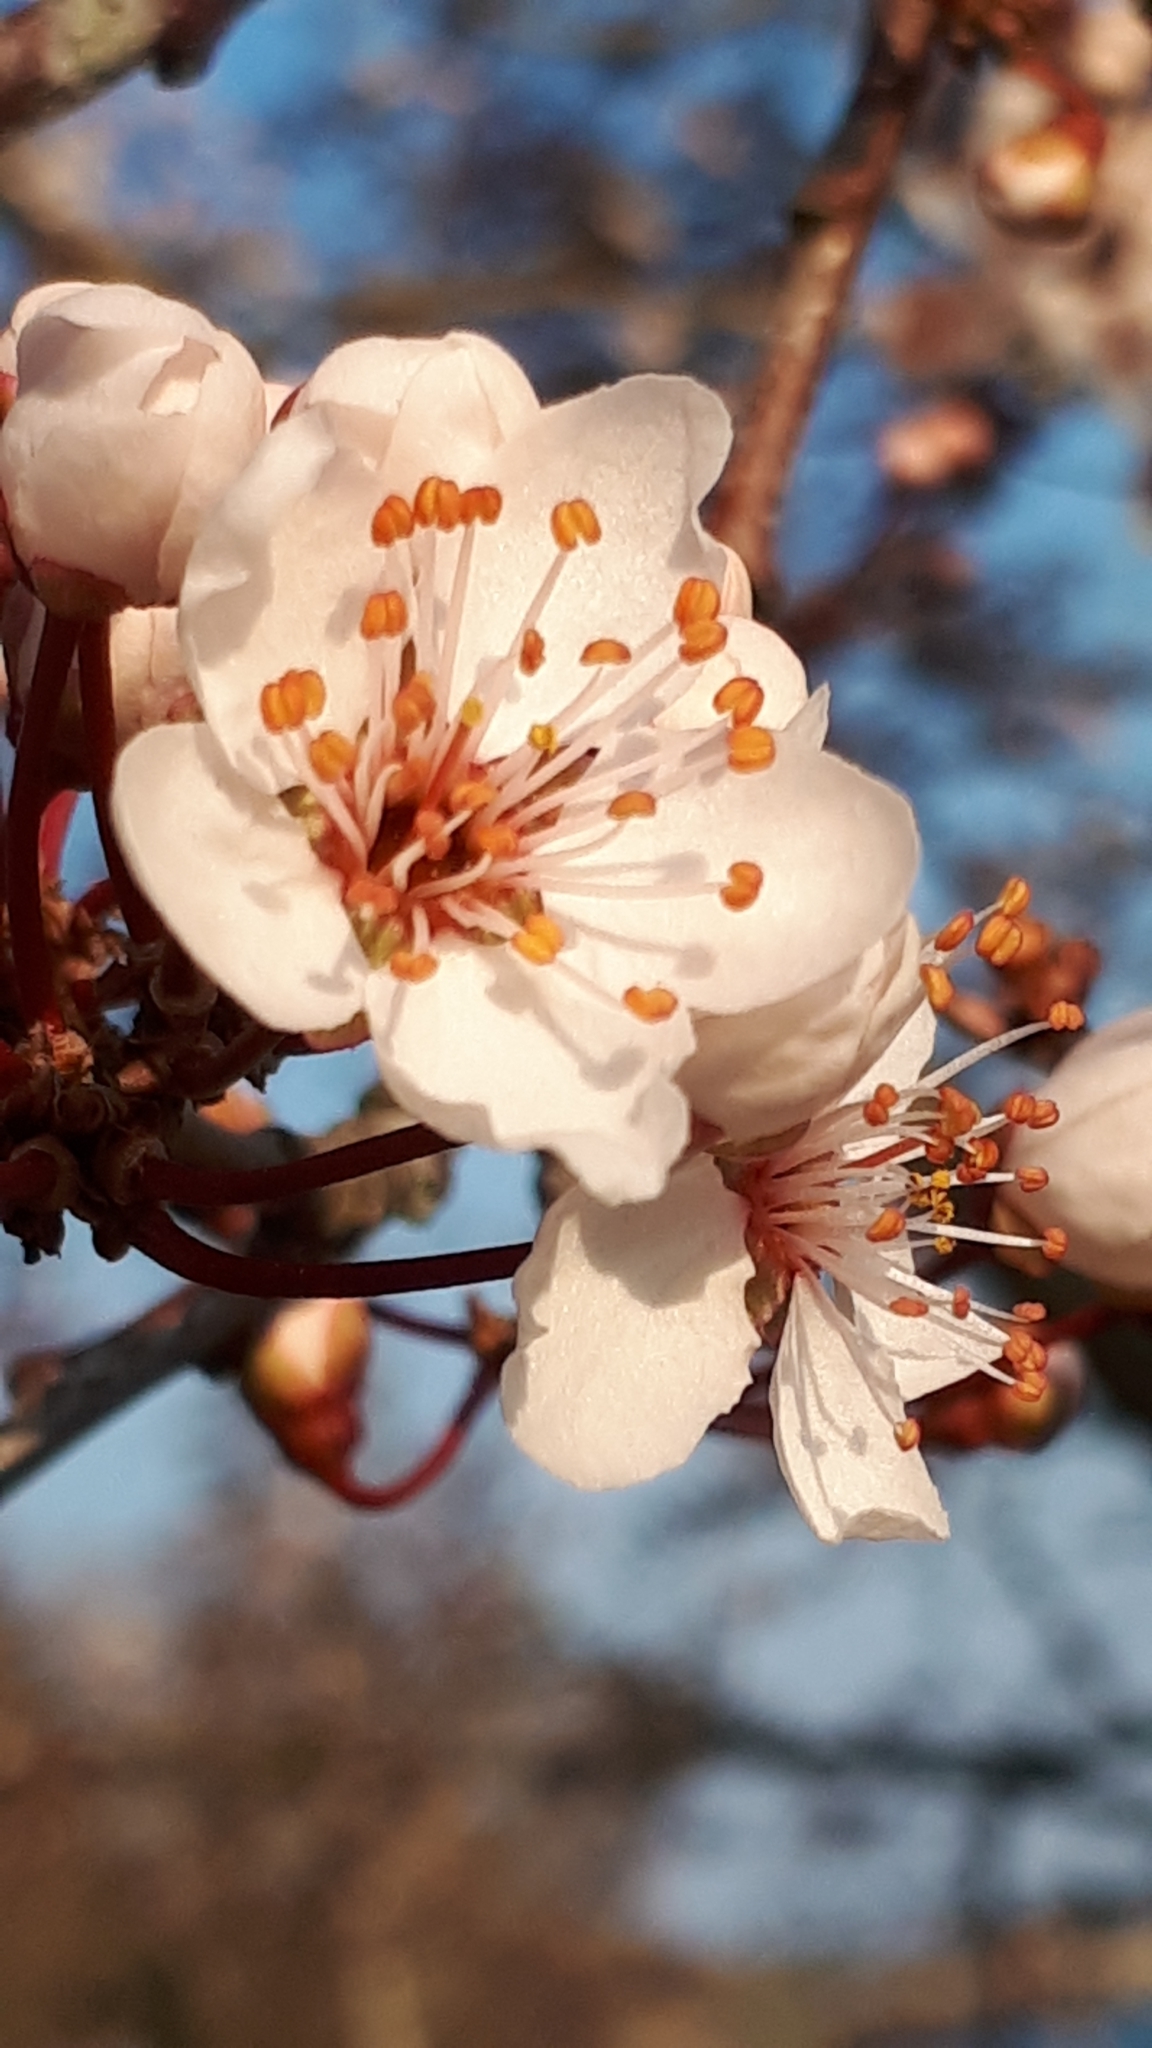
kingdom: Plantae
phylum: Tracheophyta
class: Magnoliopsida
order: Rosales
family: Rosaceae
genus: Prunus
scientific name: Prunus cerasifera
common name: Cherry plum
